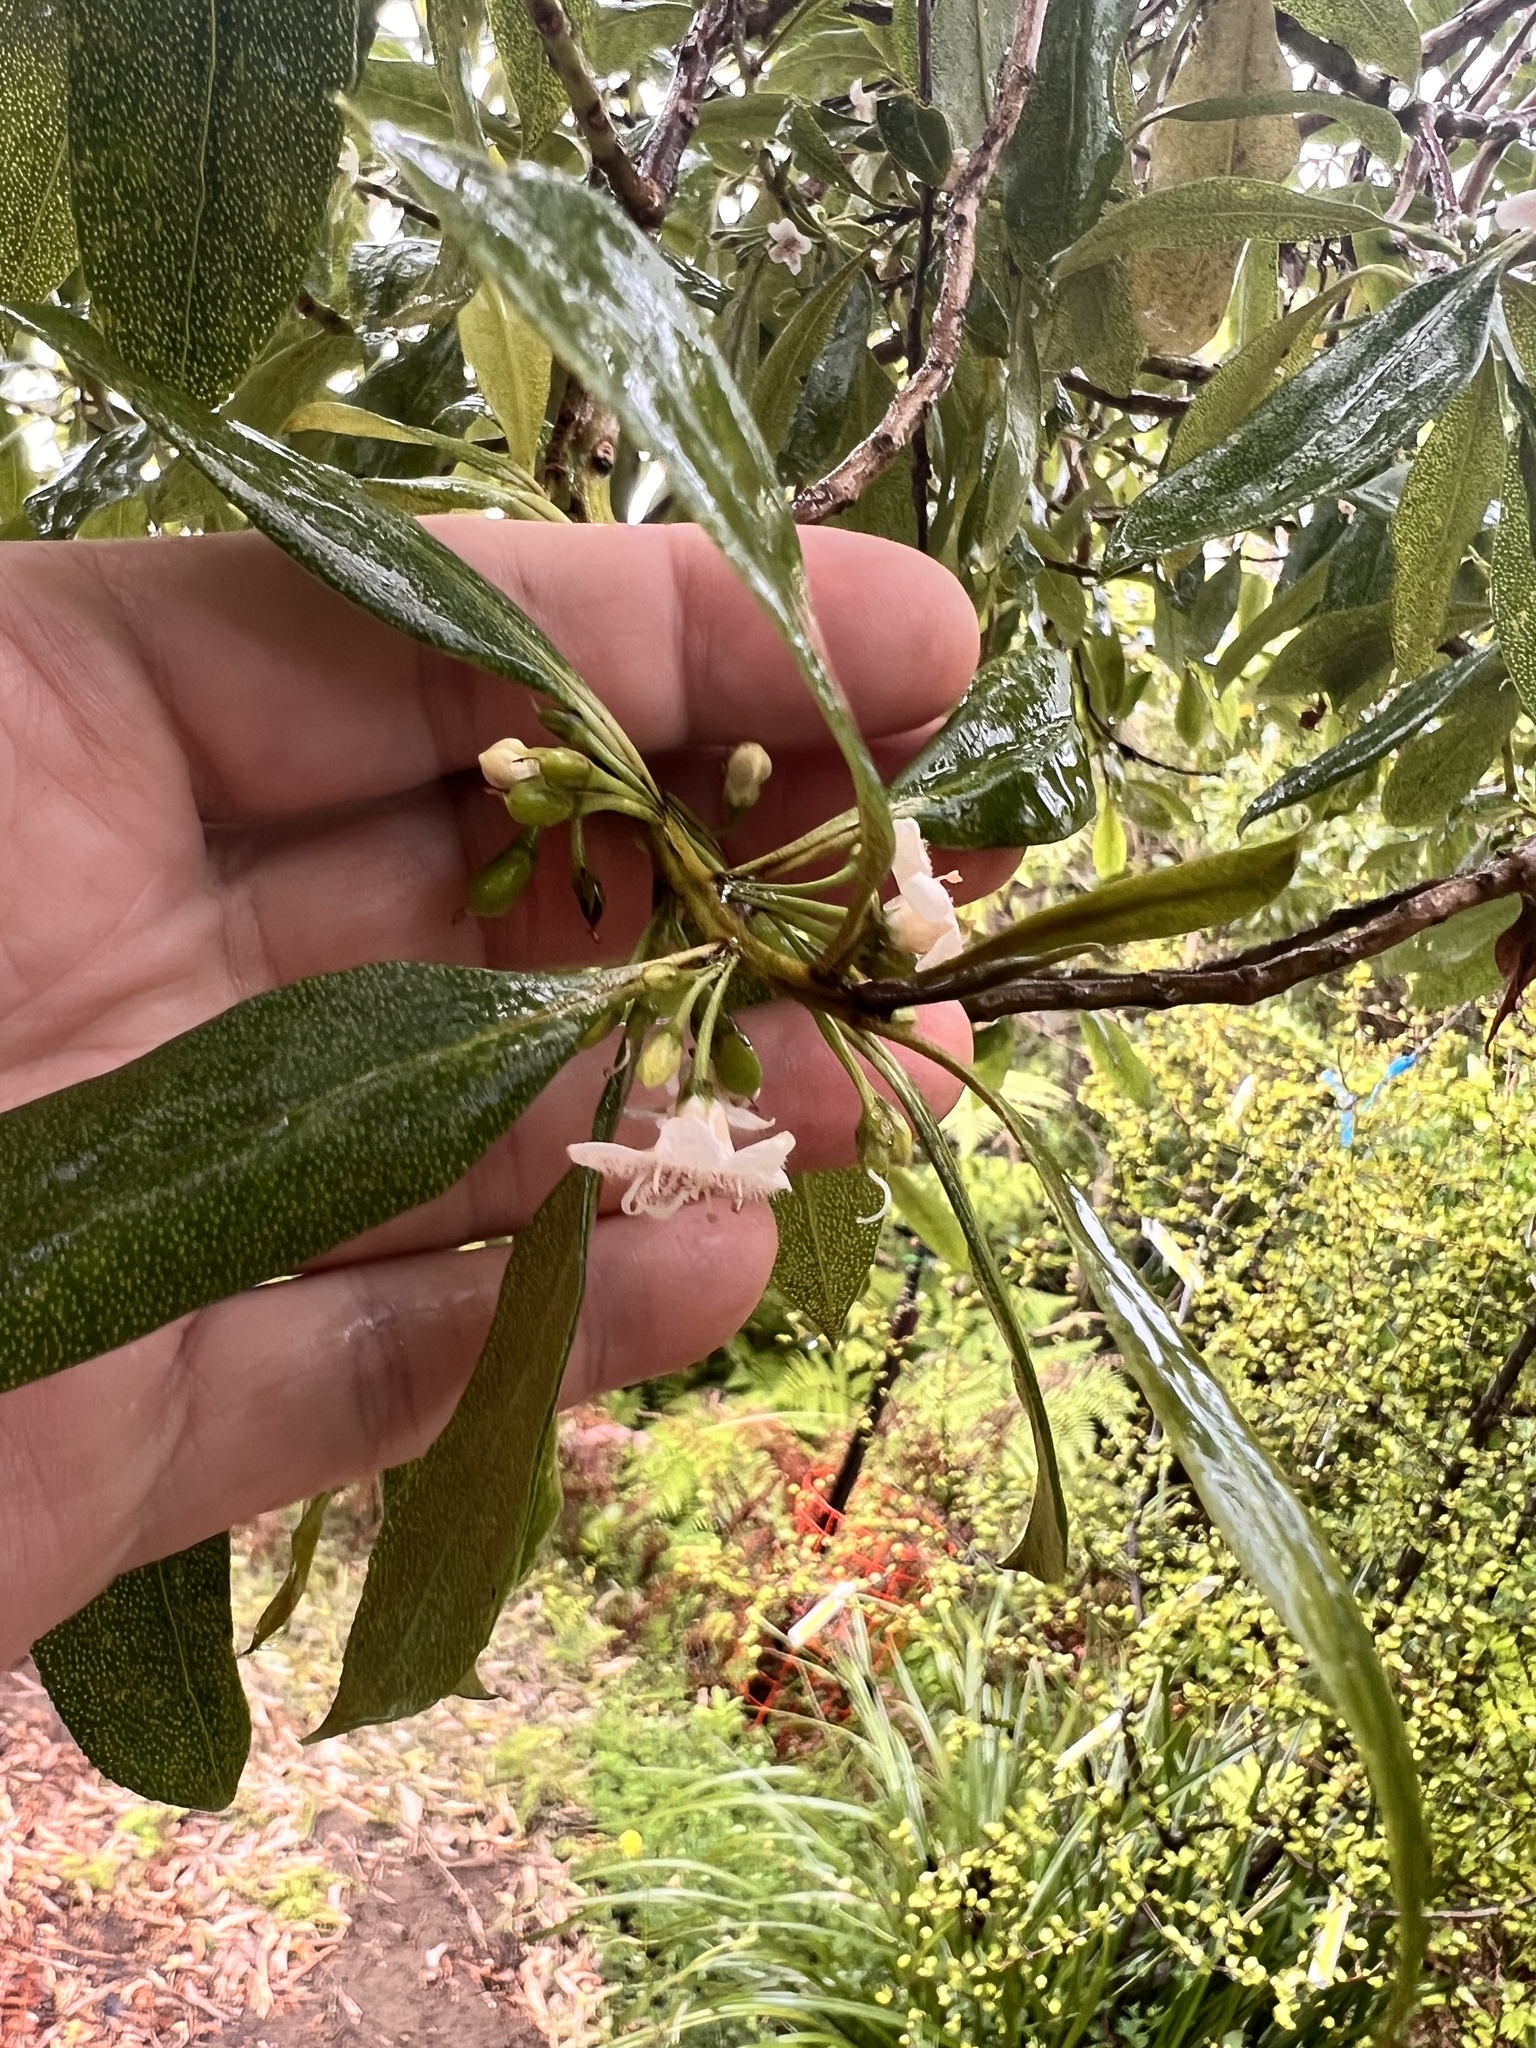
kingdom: Plantae
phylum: Tracheophyta
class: Magnoliopsida
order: Lamiales
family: Scrophulariaceae
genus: Myoporum
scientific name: Myoporum laetum
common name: Ngaio tree
